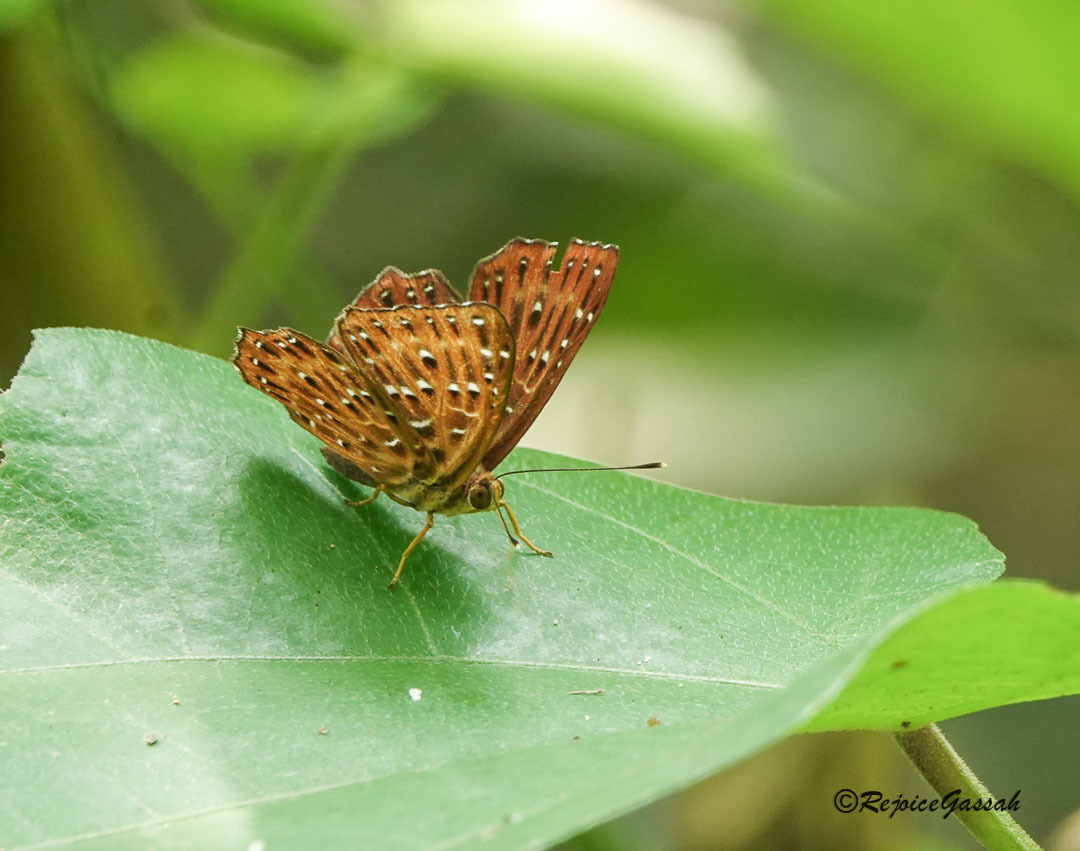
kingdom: Animalia
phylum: Arthropoda
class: Insecta
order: Lepidoptera
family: Riodinidae
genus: Zemeros
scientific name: Zemeros flegyas
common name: Punchinello
